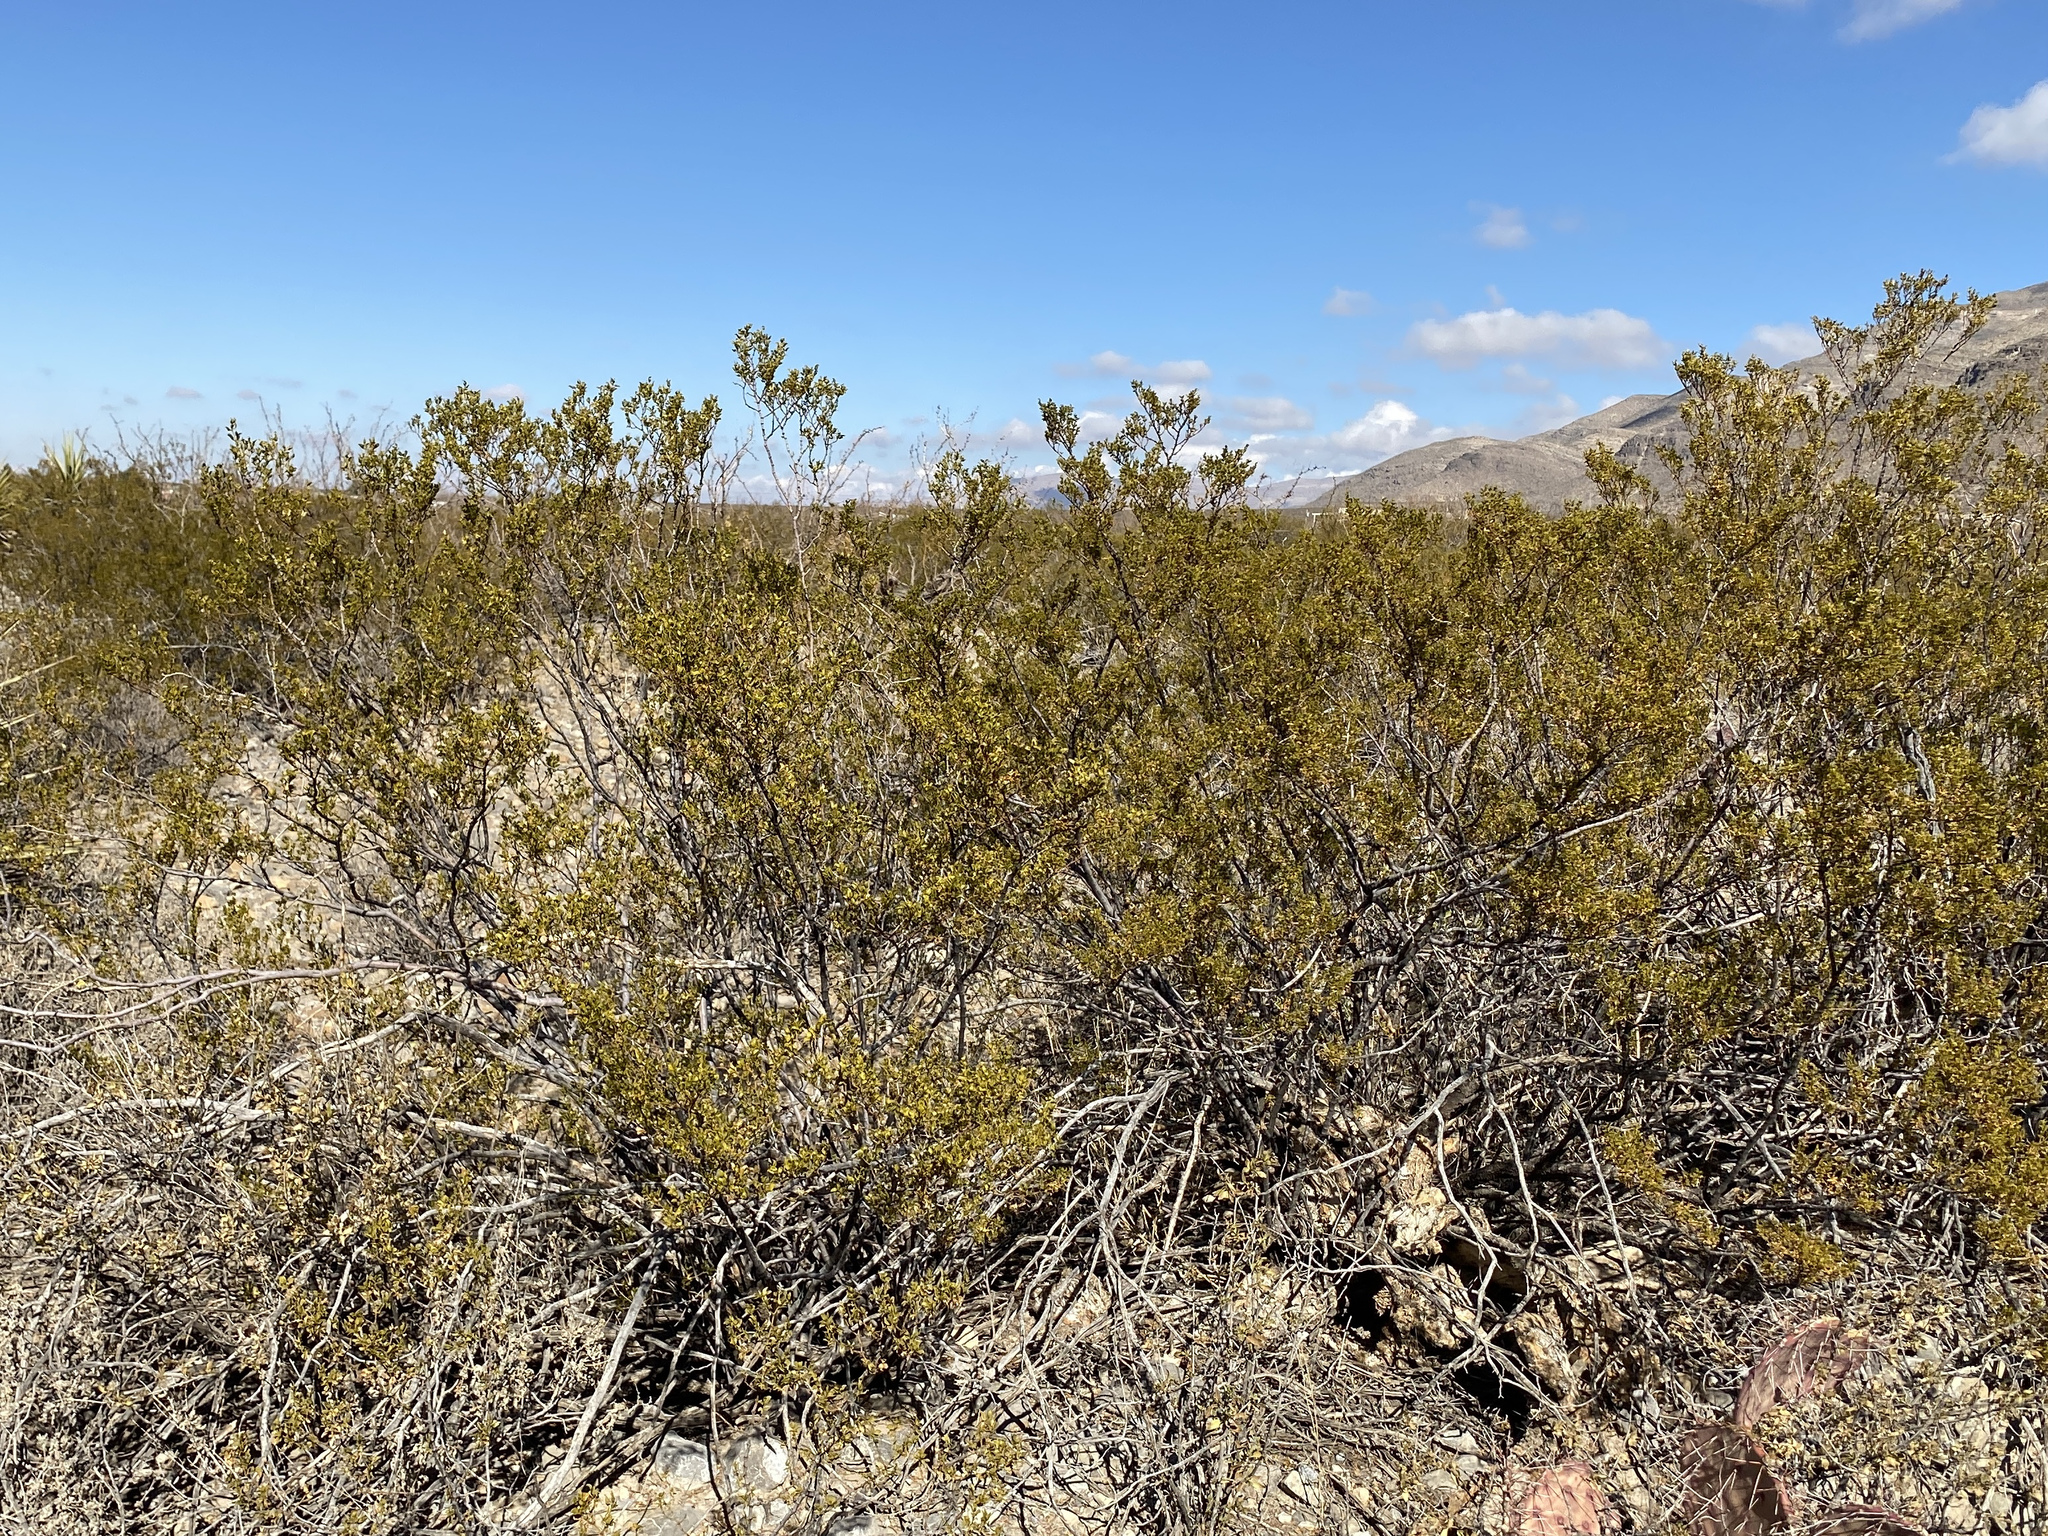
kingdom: Plantae
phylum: Tracheophyta
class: Magnoliopsida
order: Zygophyllales
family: Zygophyllaceae
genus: Larrea
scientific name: Larrea tridentata
